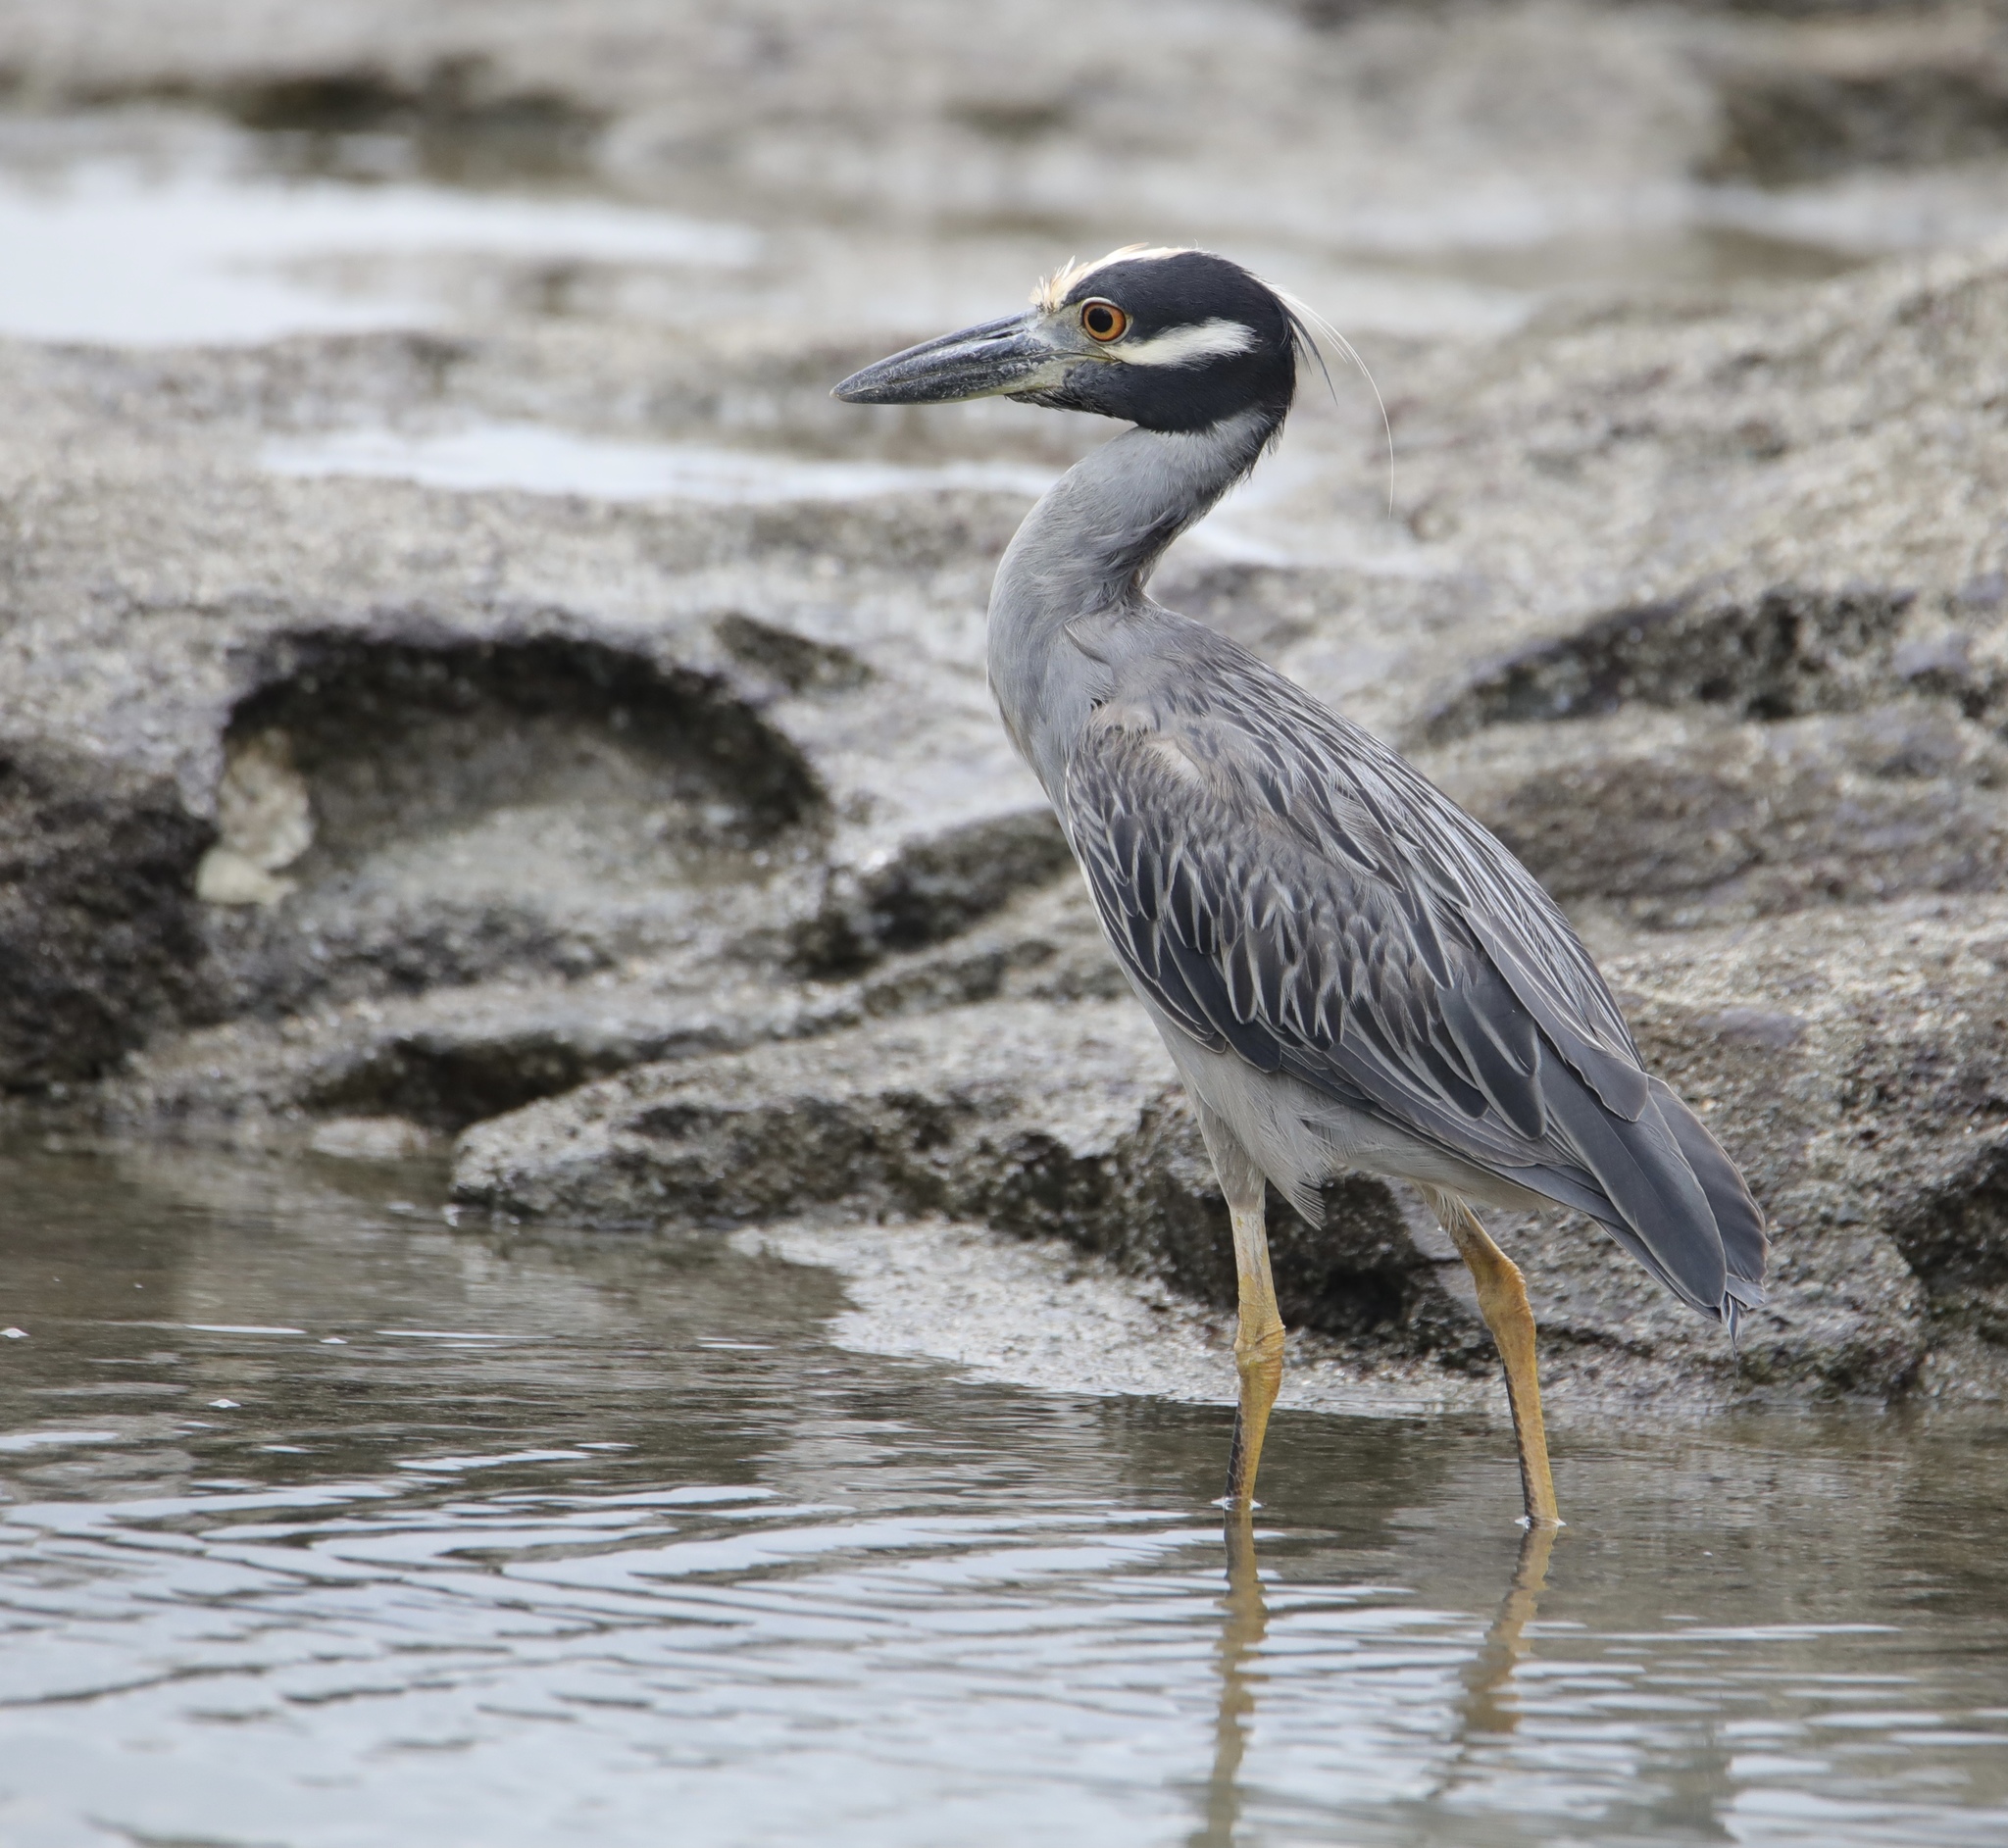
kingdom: Animalia
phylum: Chordata
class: Aves
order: Pelecaniformes
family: Ardeidae
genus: Nyctanassa
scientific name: Nyctanassa violacea
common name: Yellow-crowned night heron
